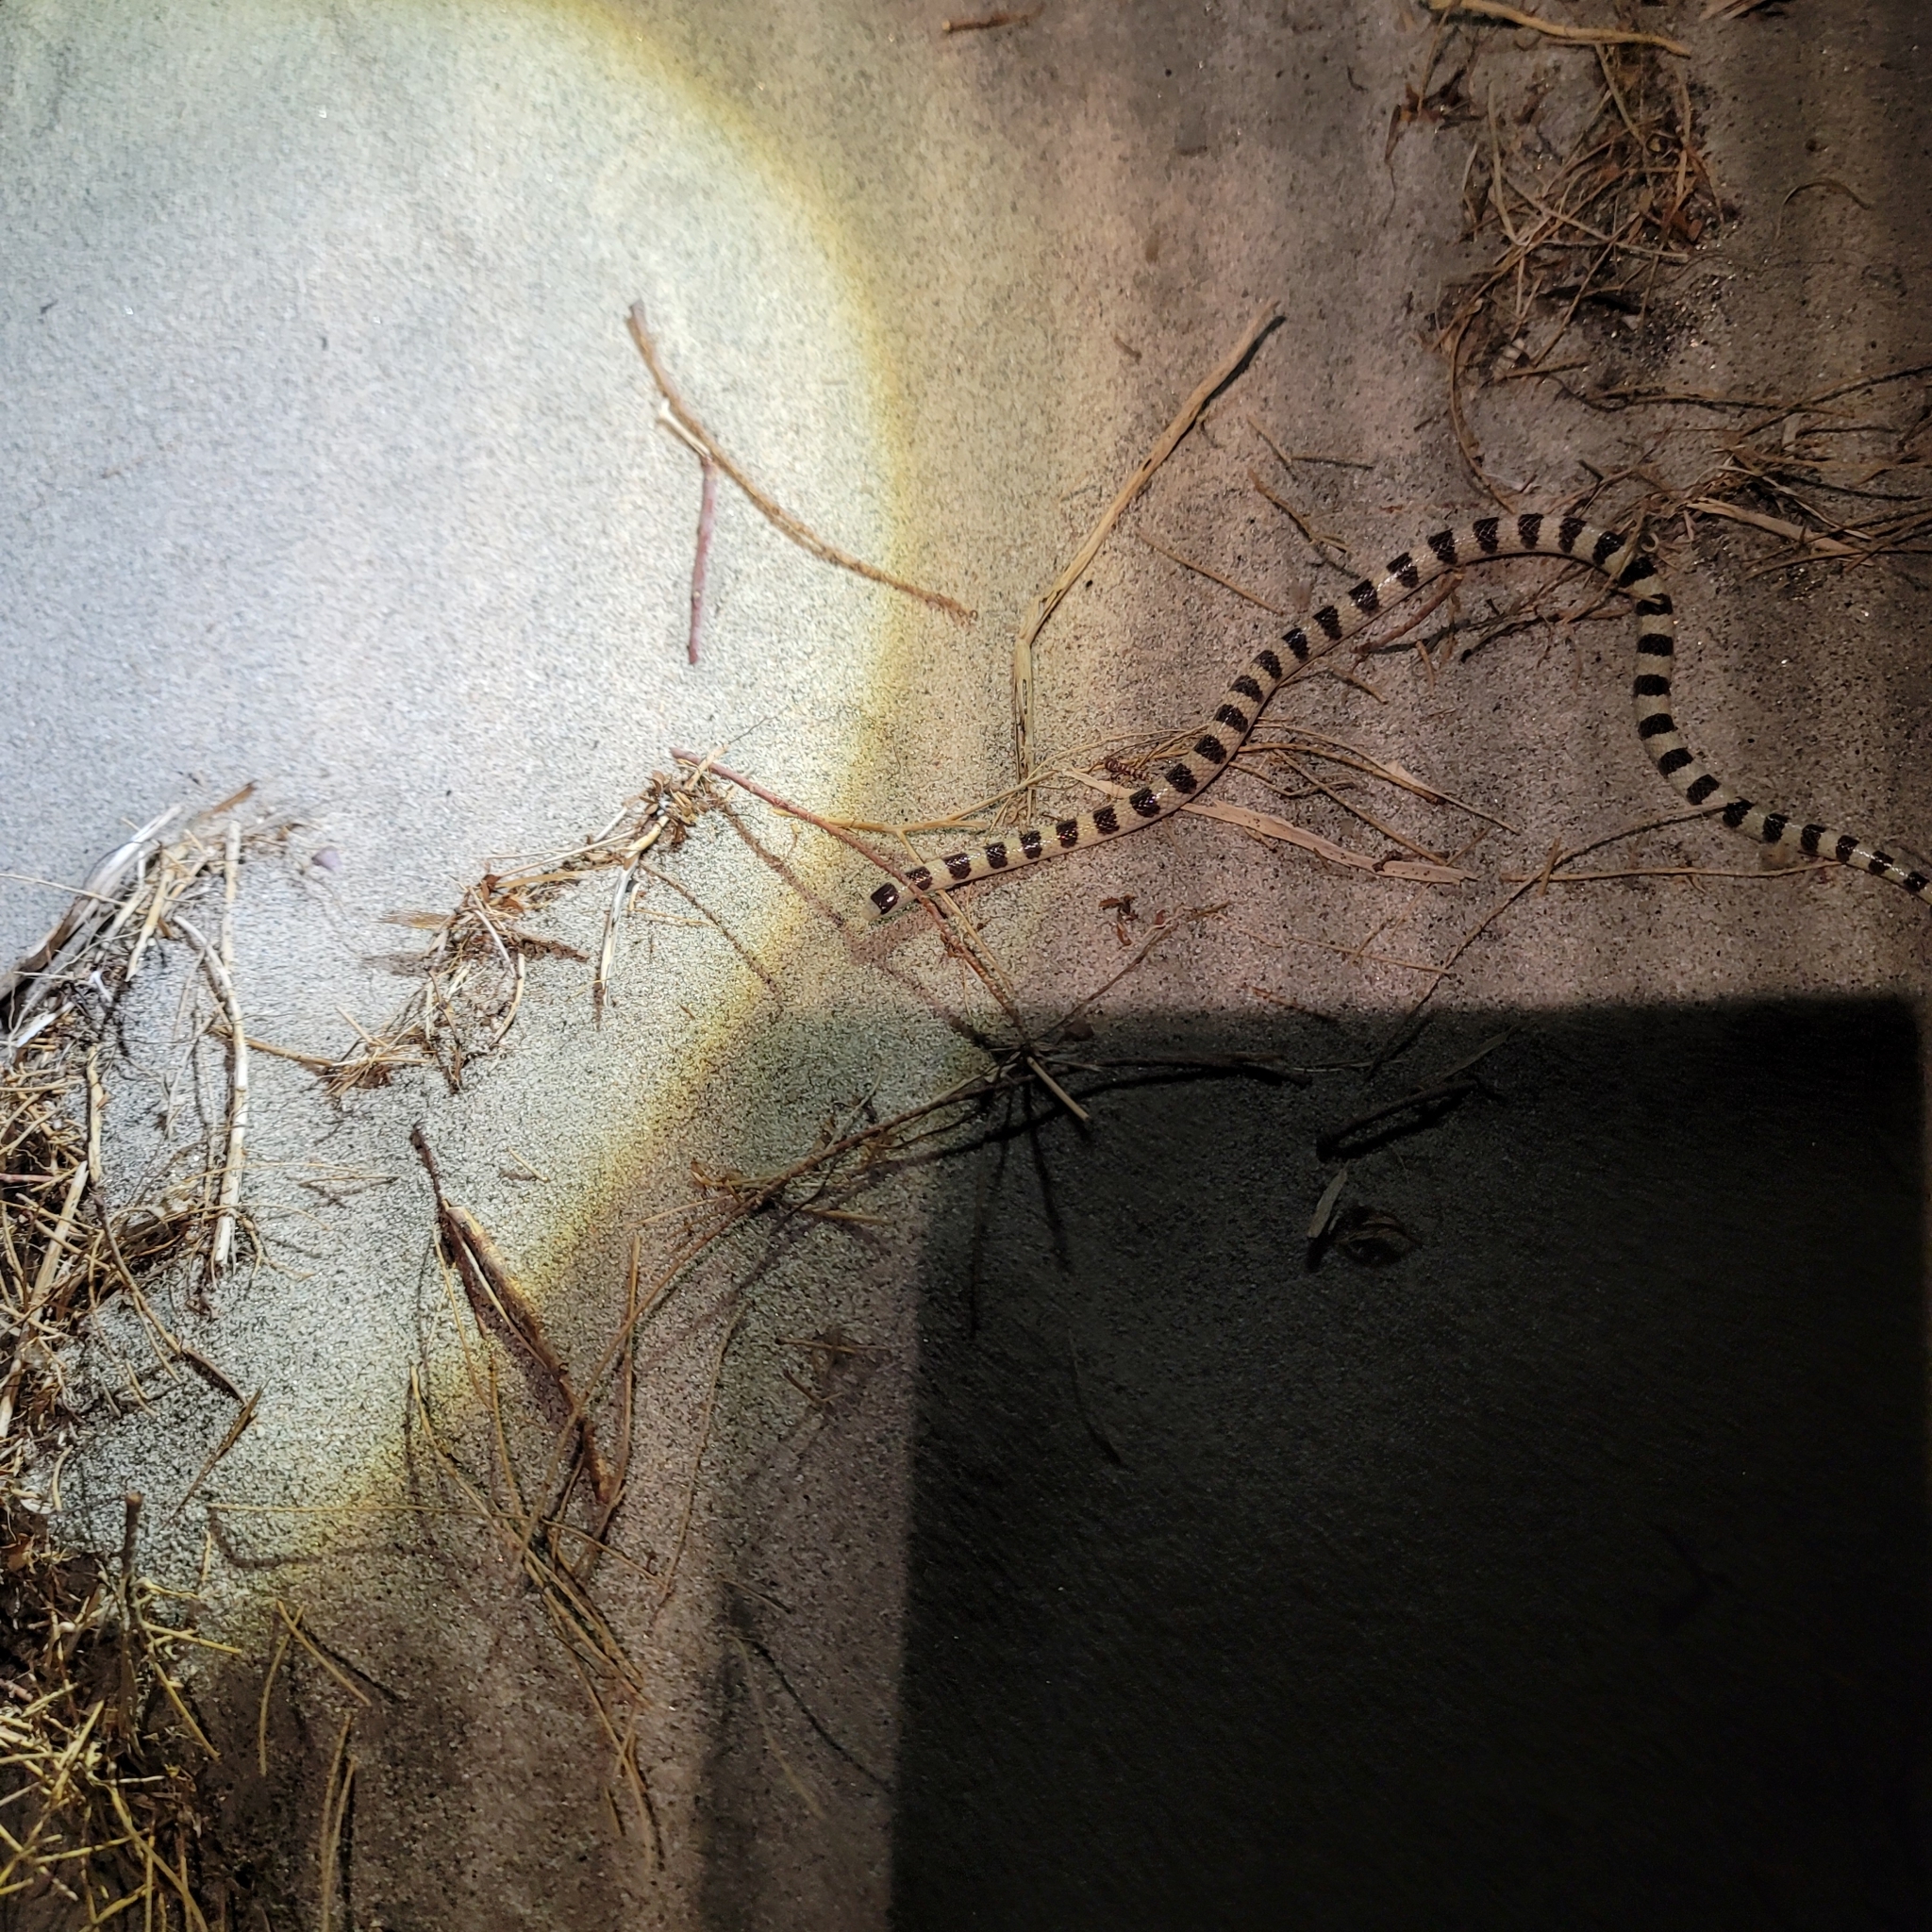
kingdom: Animalia
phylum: Chordata
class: Squamata
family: Colubridae
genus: Sonora
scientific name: Sonora occipitalis
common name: Western shovelnose snake
